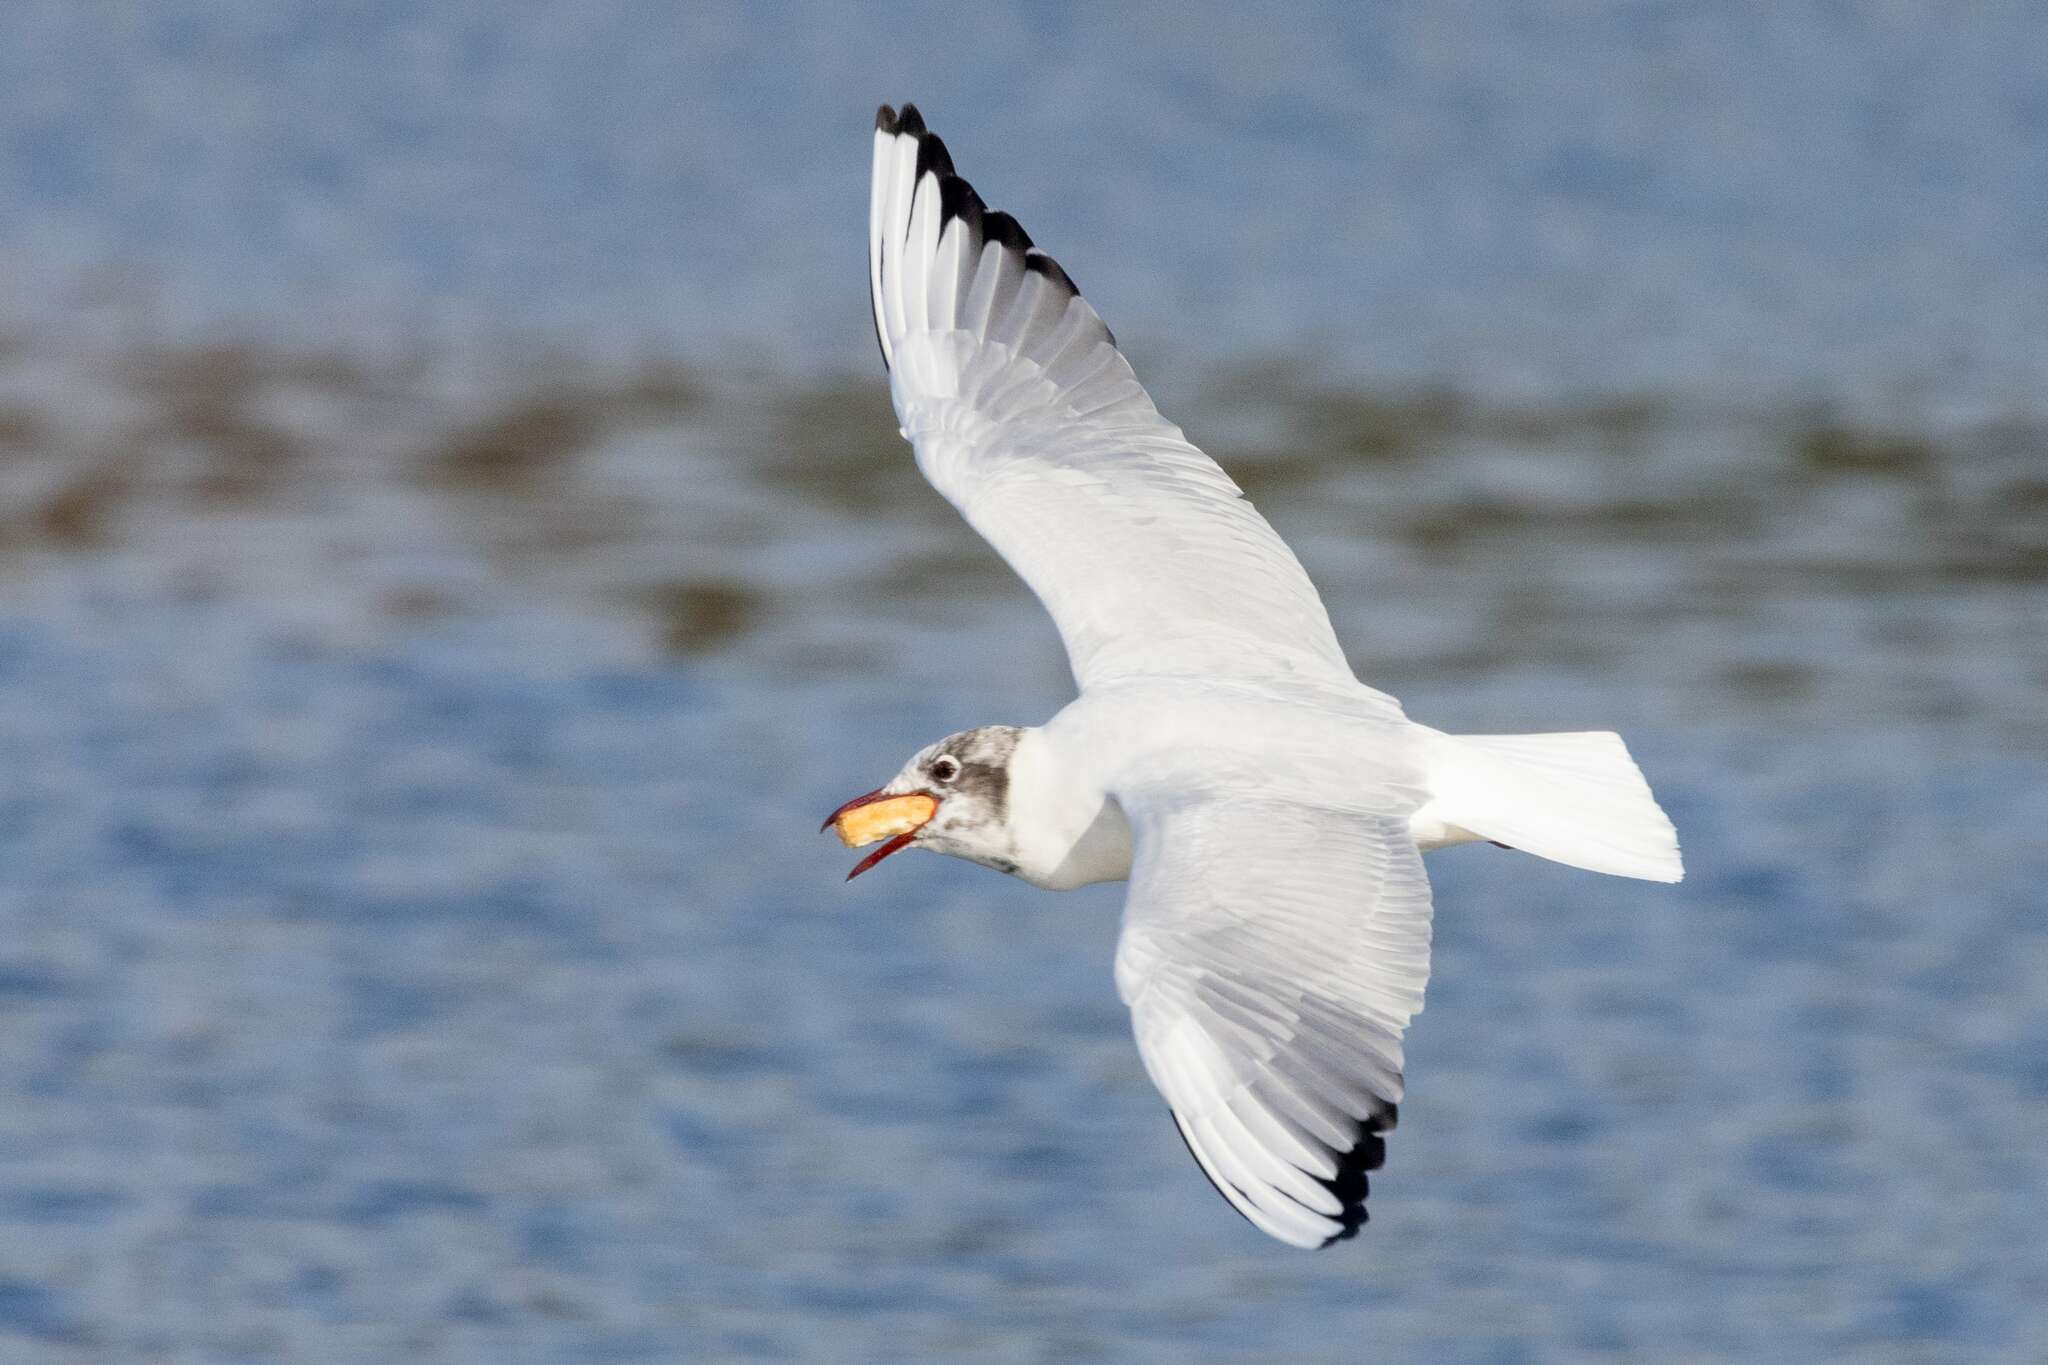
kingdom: Animalia
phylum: Chordata
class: Aves
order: Charadriiformes
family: Laridae
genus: Chroicocephalus
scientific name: Chroicocephalus ridibundus
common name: Black-headed gull
